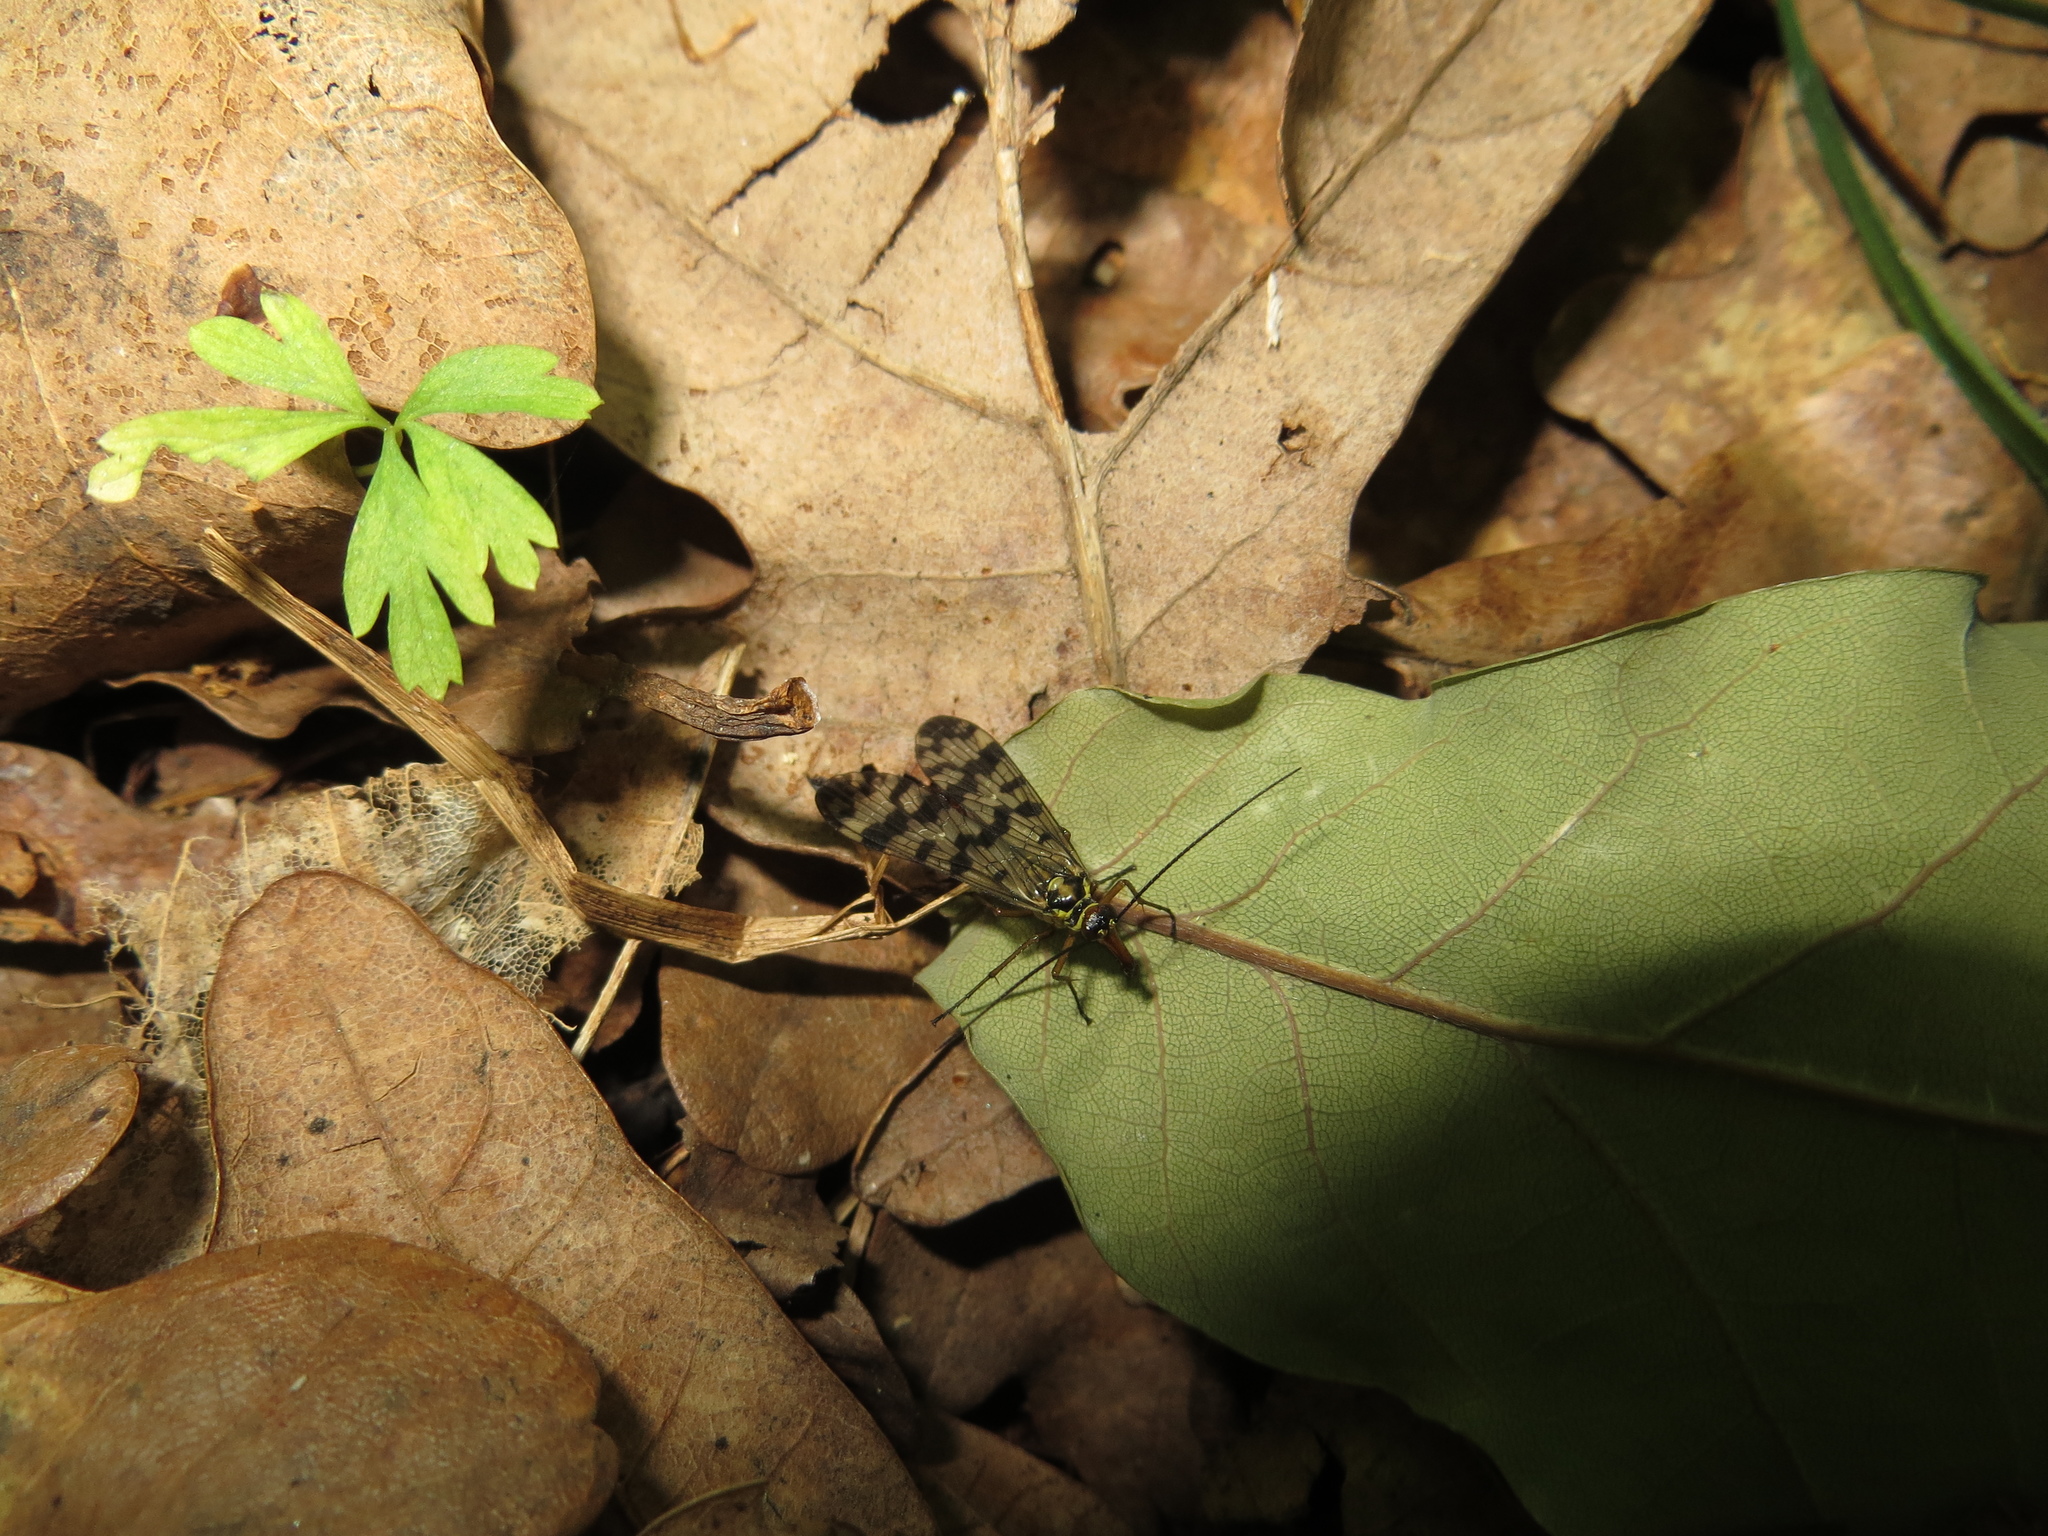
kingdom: Animalia
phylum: Arthropoda
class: Insecta
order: Mecoptera
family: Panorpidae
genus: Panorpa
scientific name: Panorpa communis
